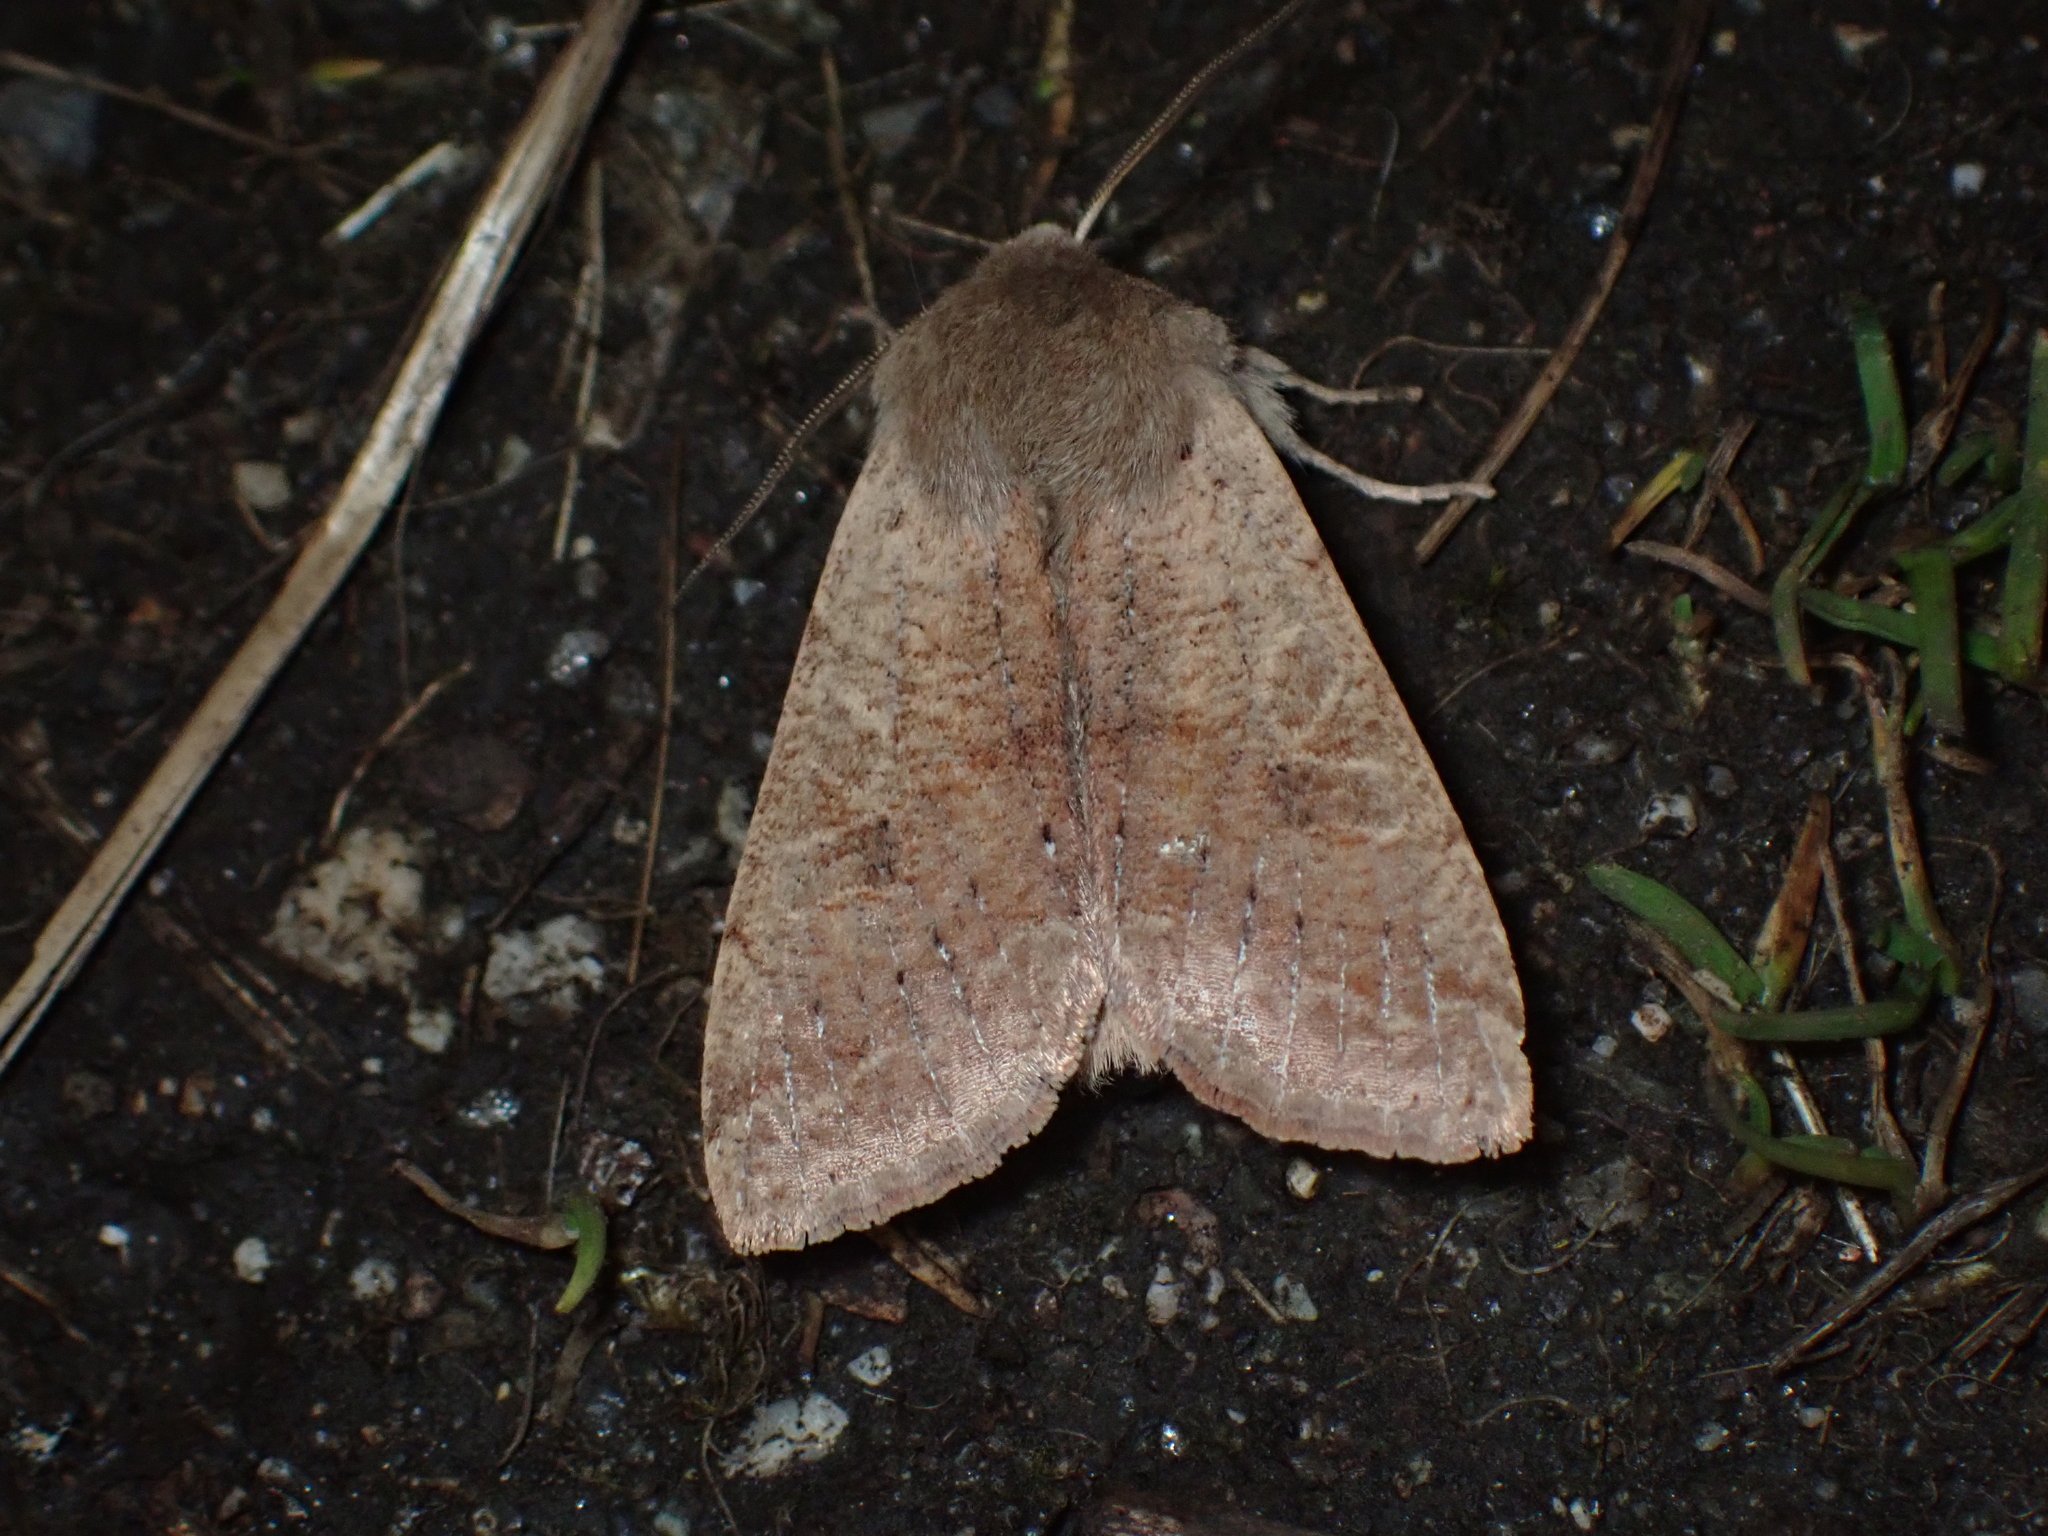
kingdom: Animalia
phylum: Arthropoda
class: Insecta
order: Lepidoptera
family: Noctuidae
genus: Orthosia
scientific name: Orthosia pacifica
